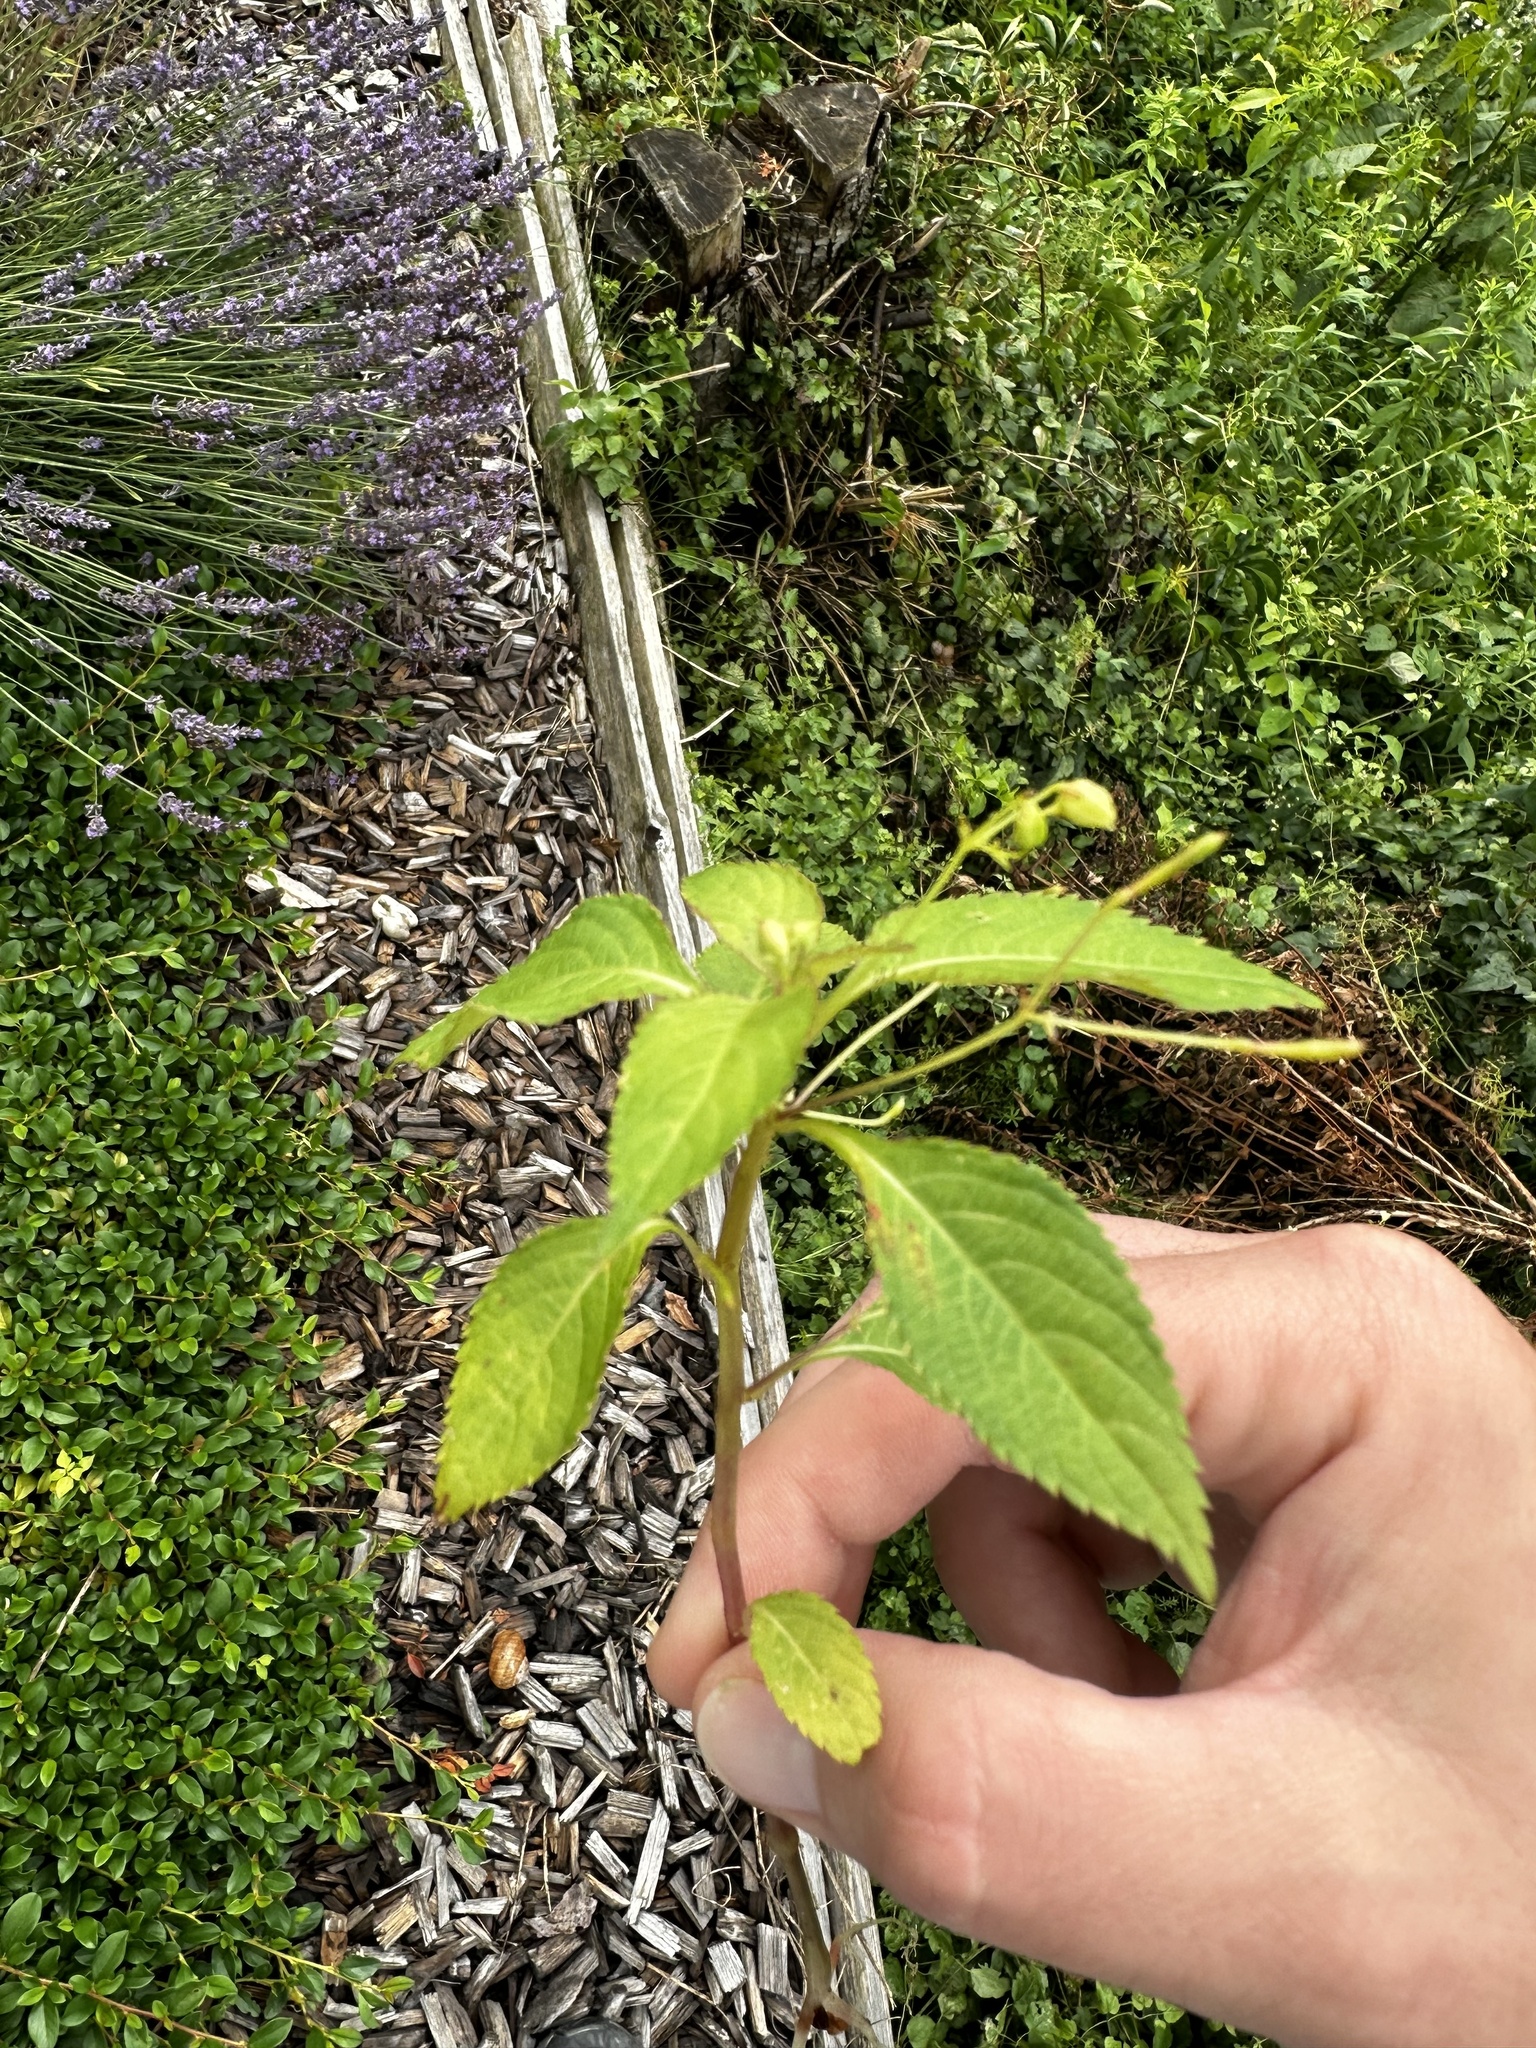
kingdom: Plantae
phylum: Tracheophyta
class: Magnoliopsida
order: Ericales
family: Balsaminaceae
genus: Impatiens
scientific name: Impatiens parviflora
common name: Small balsam
